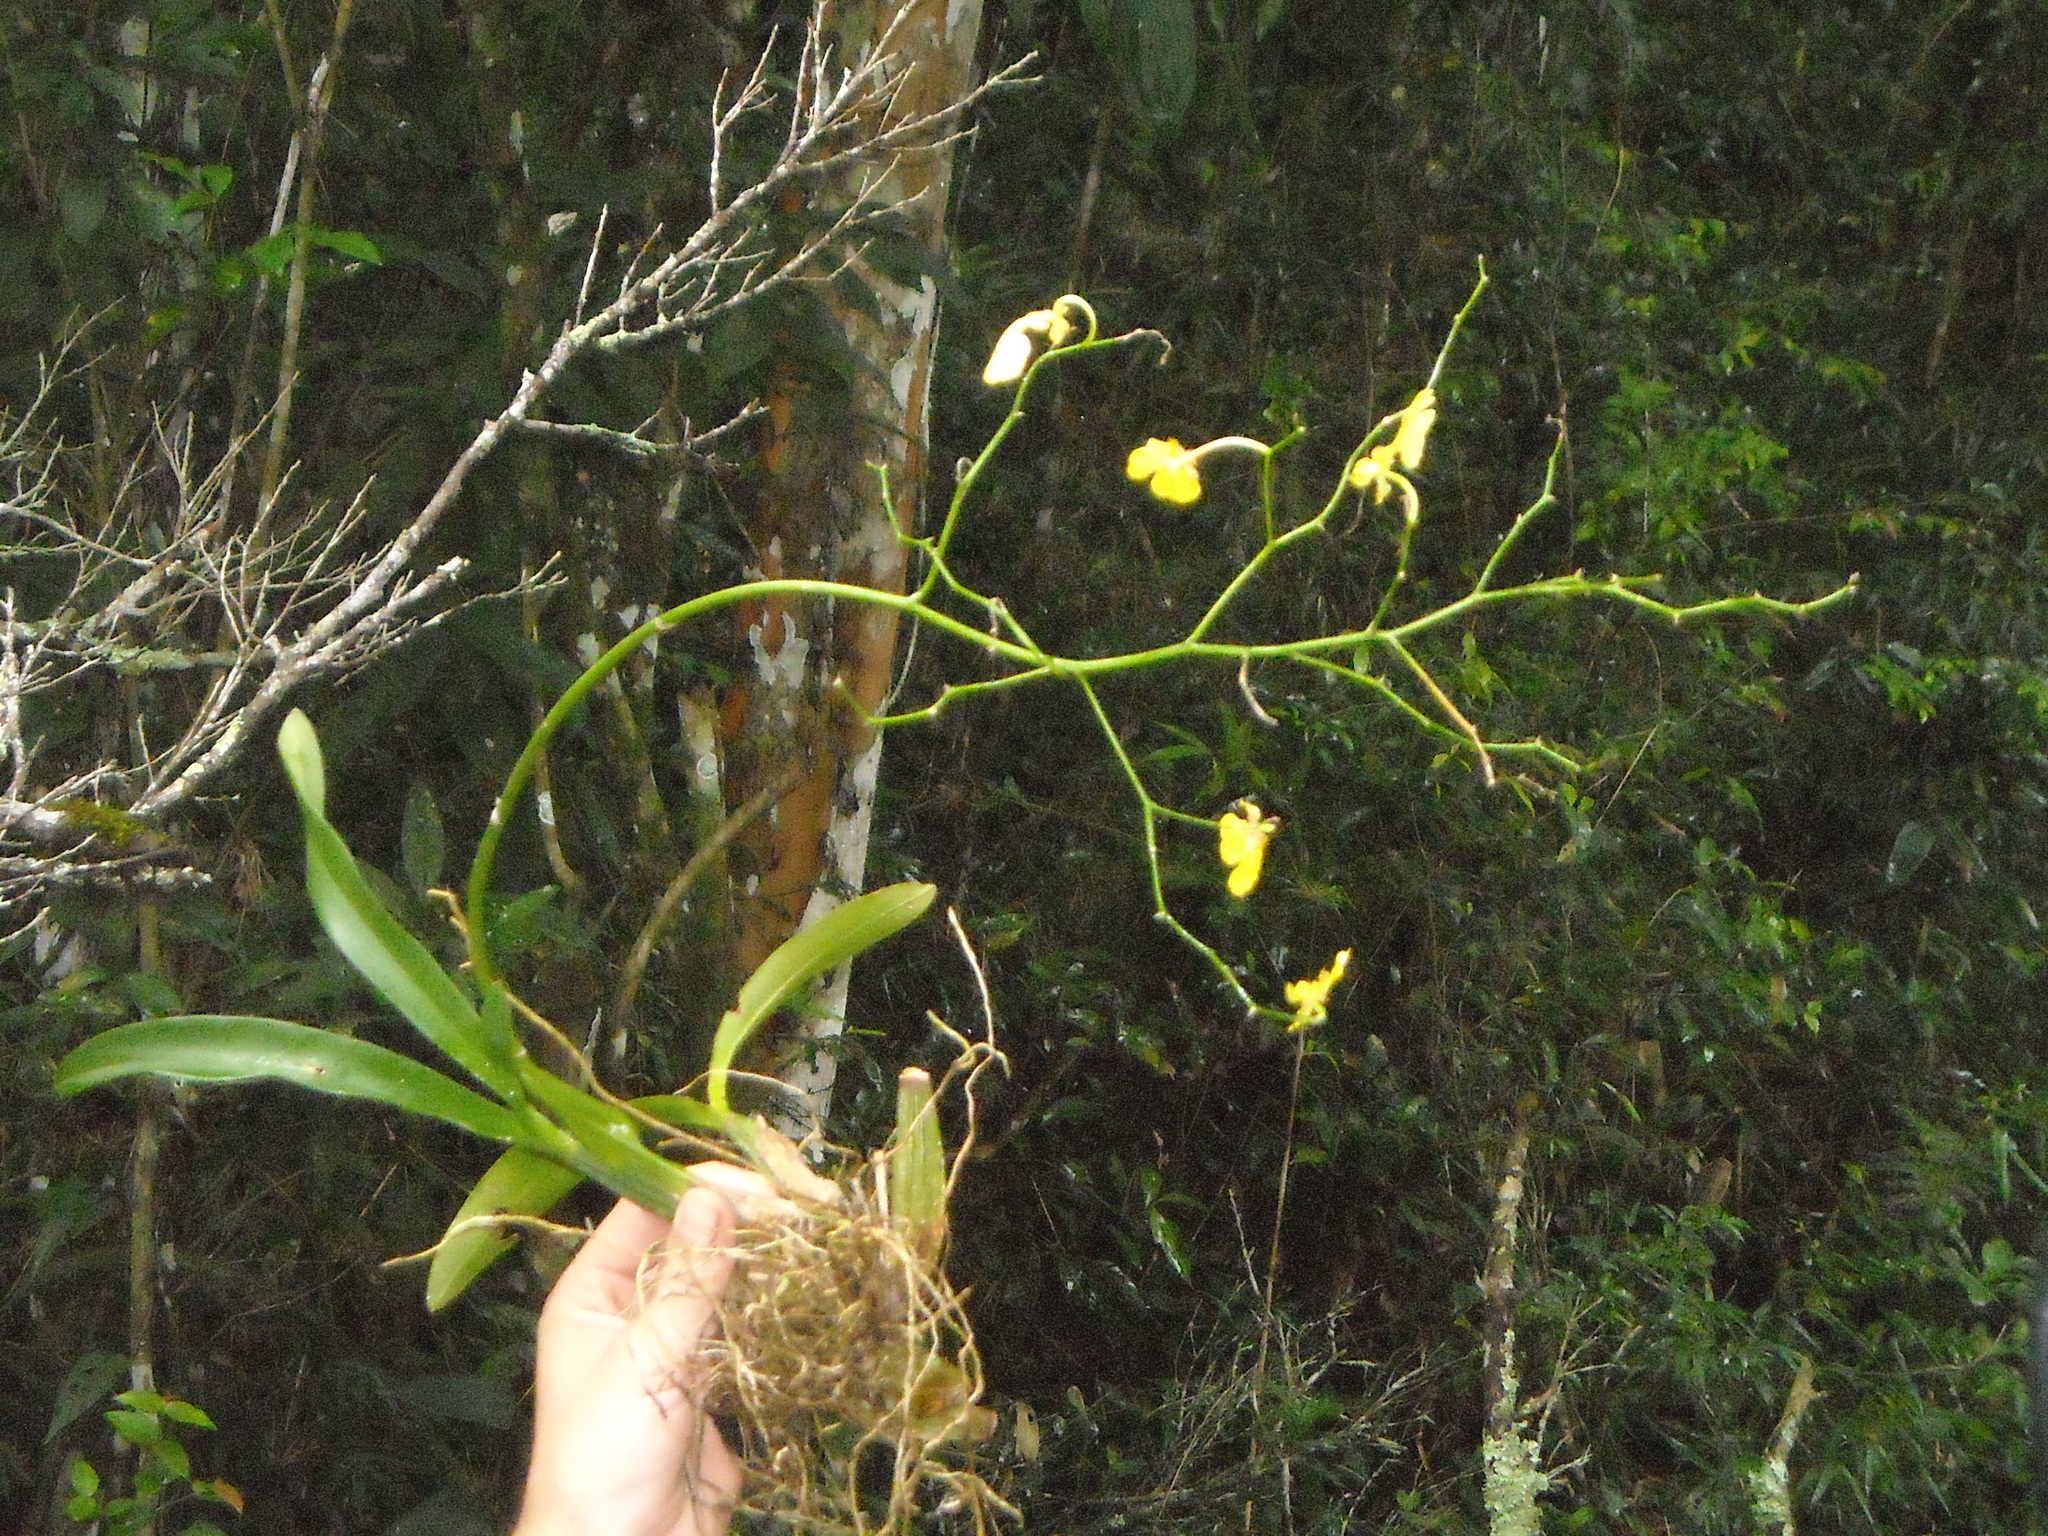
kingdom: Plantae
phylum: Tracheophyta
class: Liliopsida
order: Asparagales
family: Orchidaceae
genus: Gomesa
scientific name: Gomesa bifolia
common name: Dancing ladies
